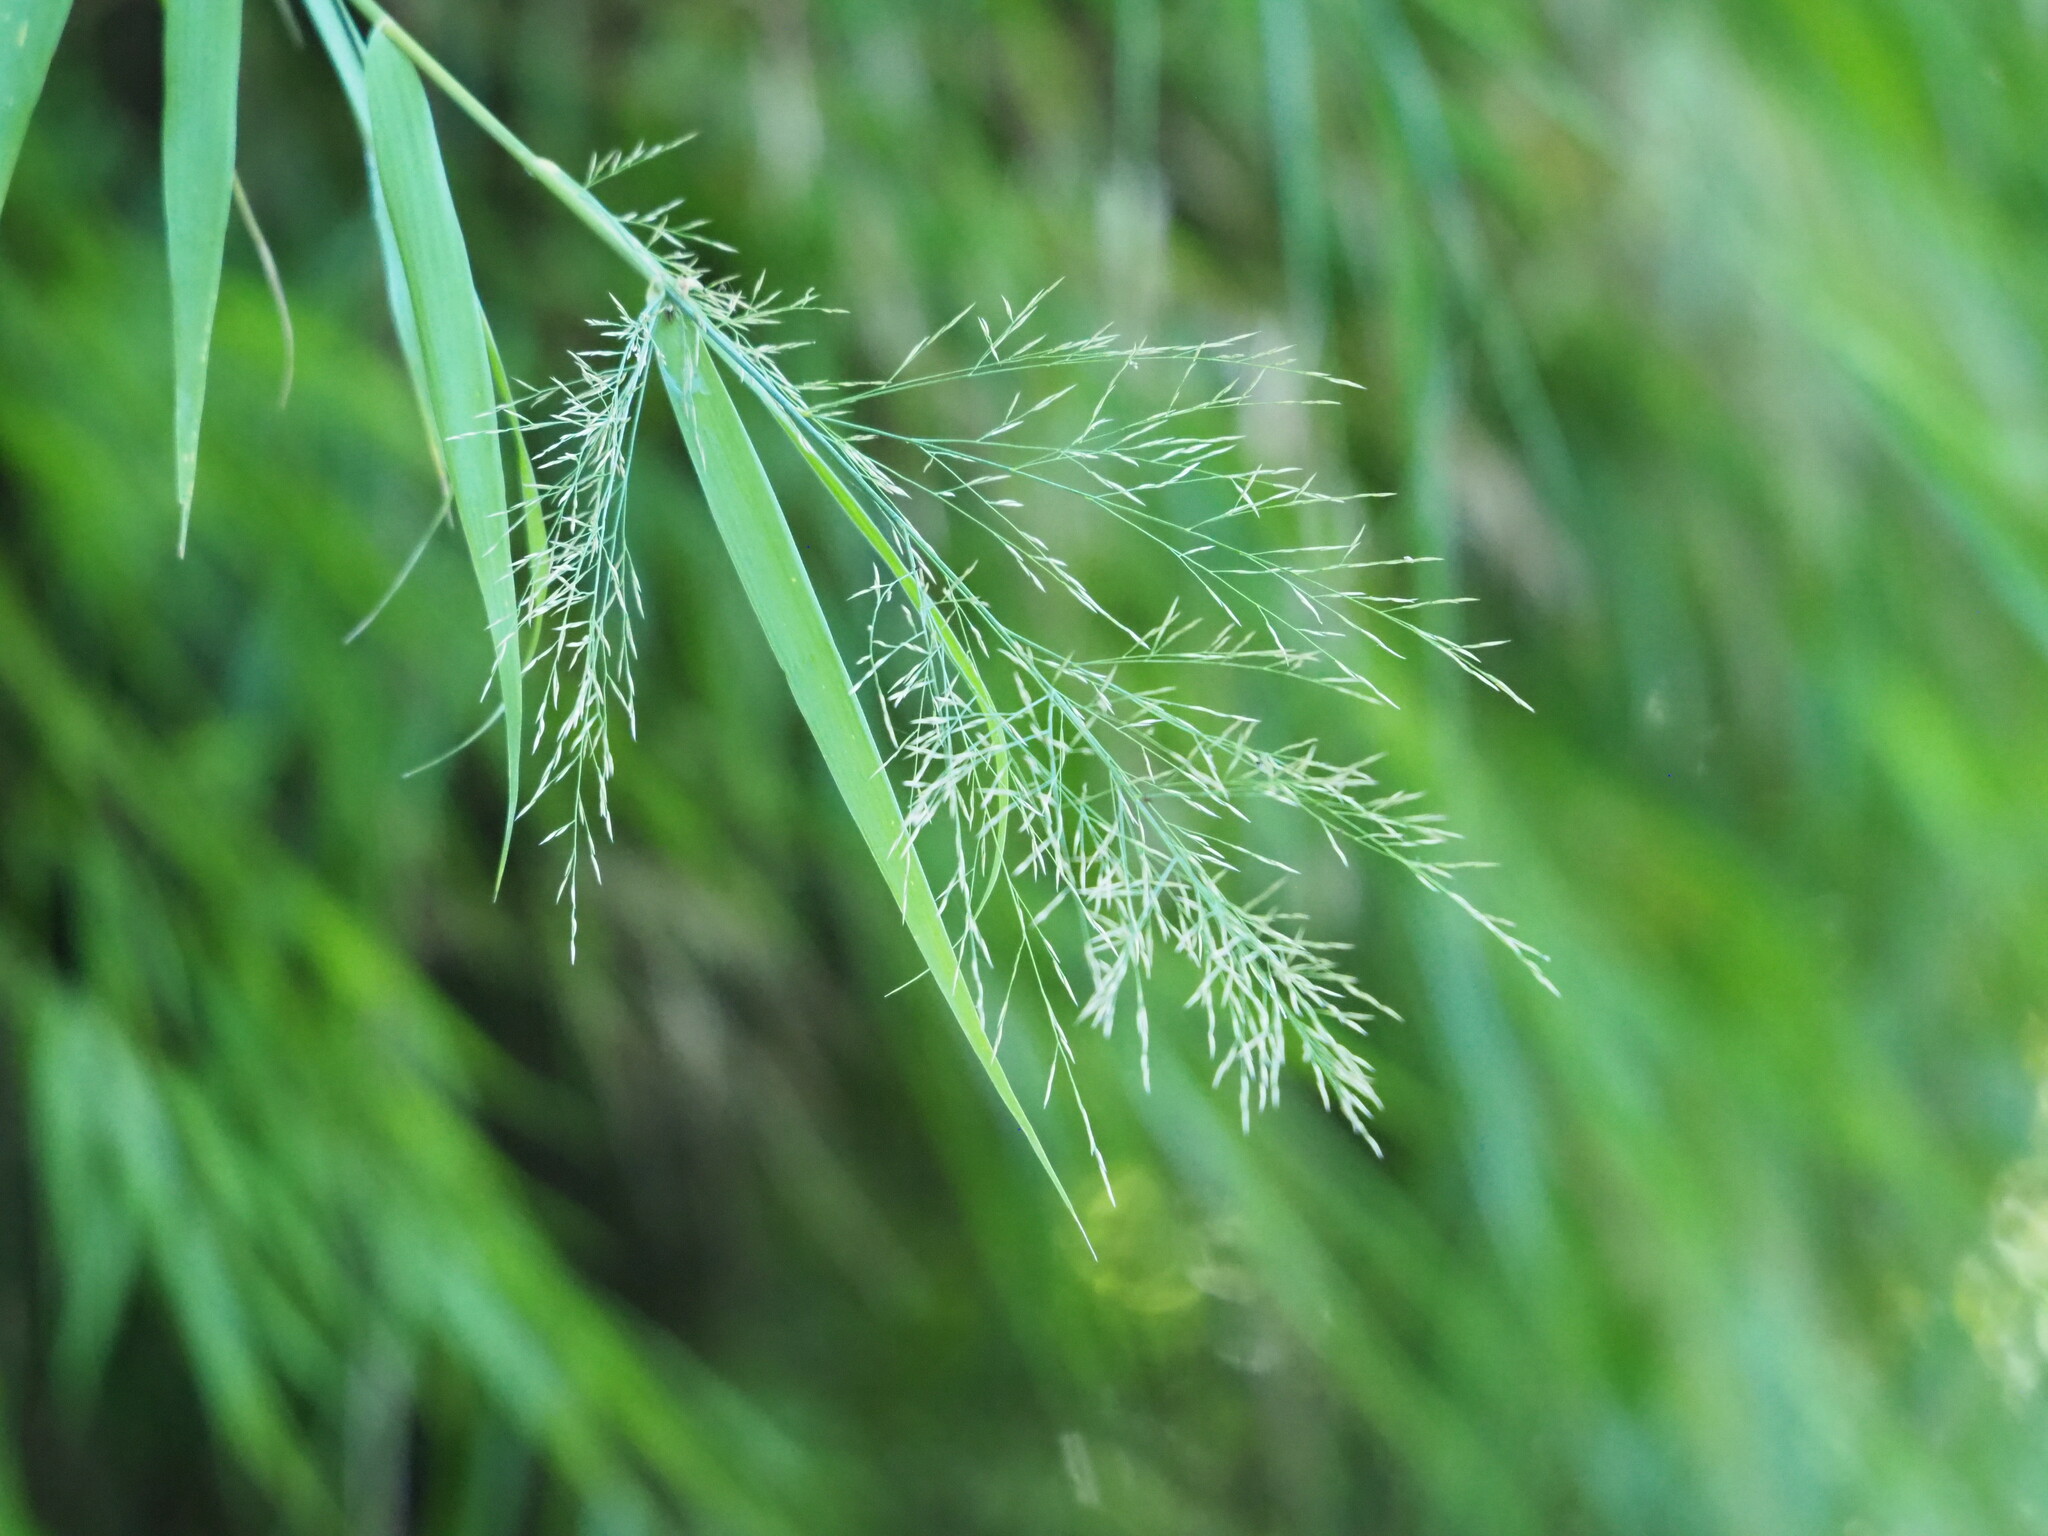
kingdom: Plantae
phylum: Tracheophyta
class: Liliopsida
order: Poales
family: Poaceae
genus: Arundo
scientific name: Arundo formosana
